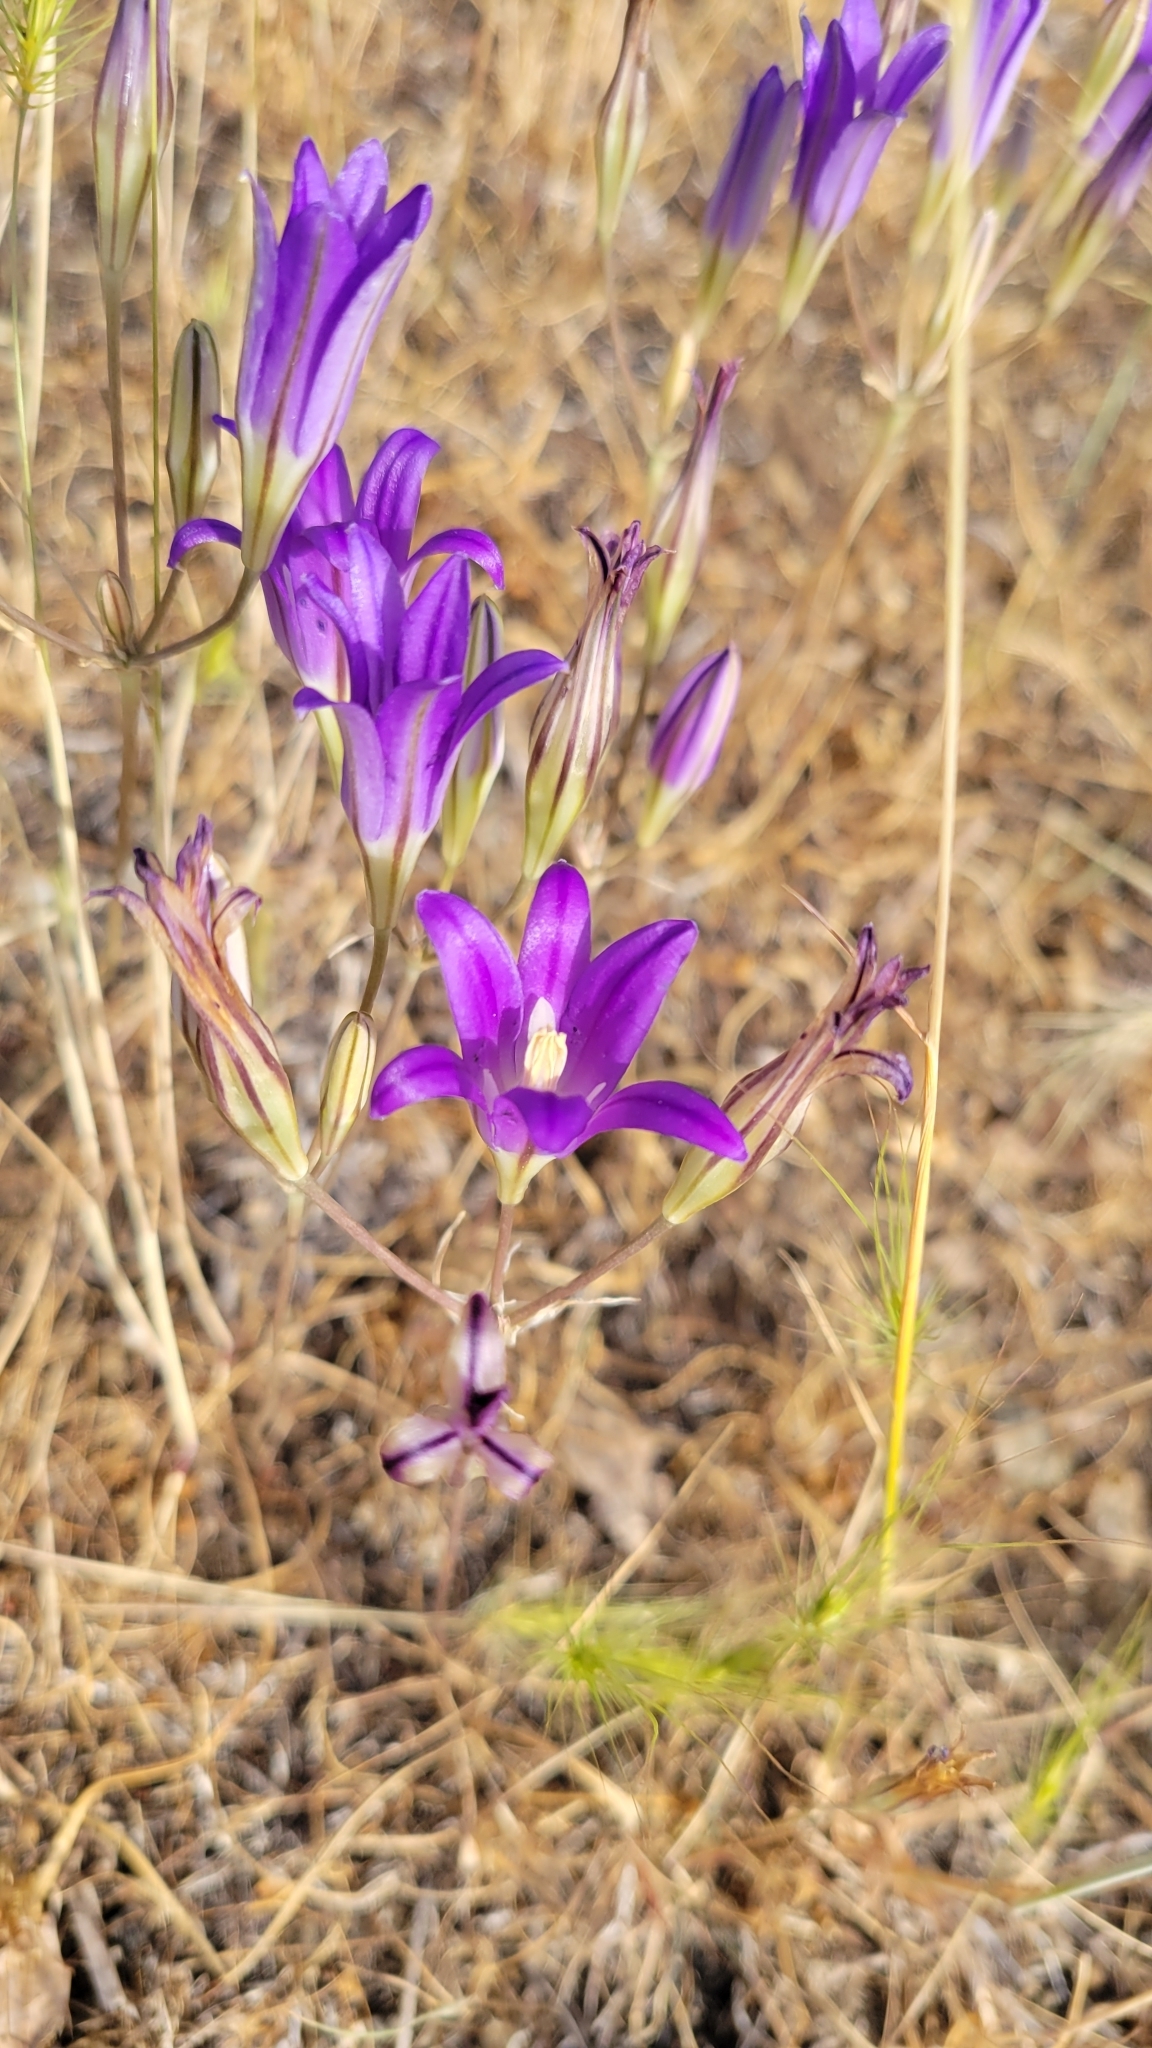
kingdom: Plantae
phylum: Tracheophyta
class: Liliopsida
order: Asparagales
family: Asparagaceae
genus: Brodiaea
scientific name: Brodiaea elegans
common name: Elegant cluster-lily
